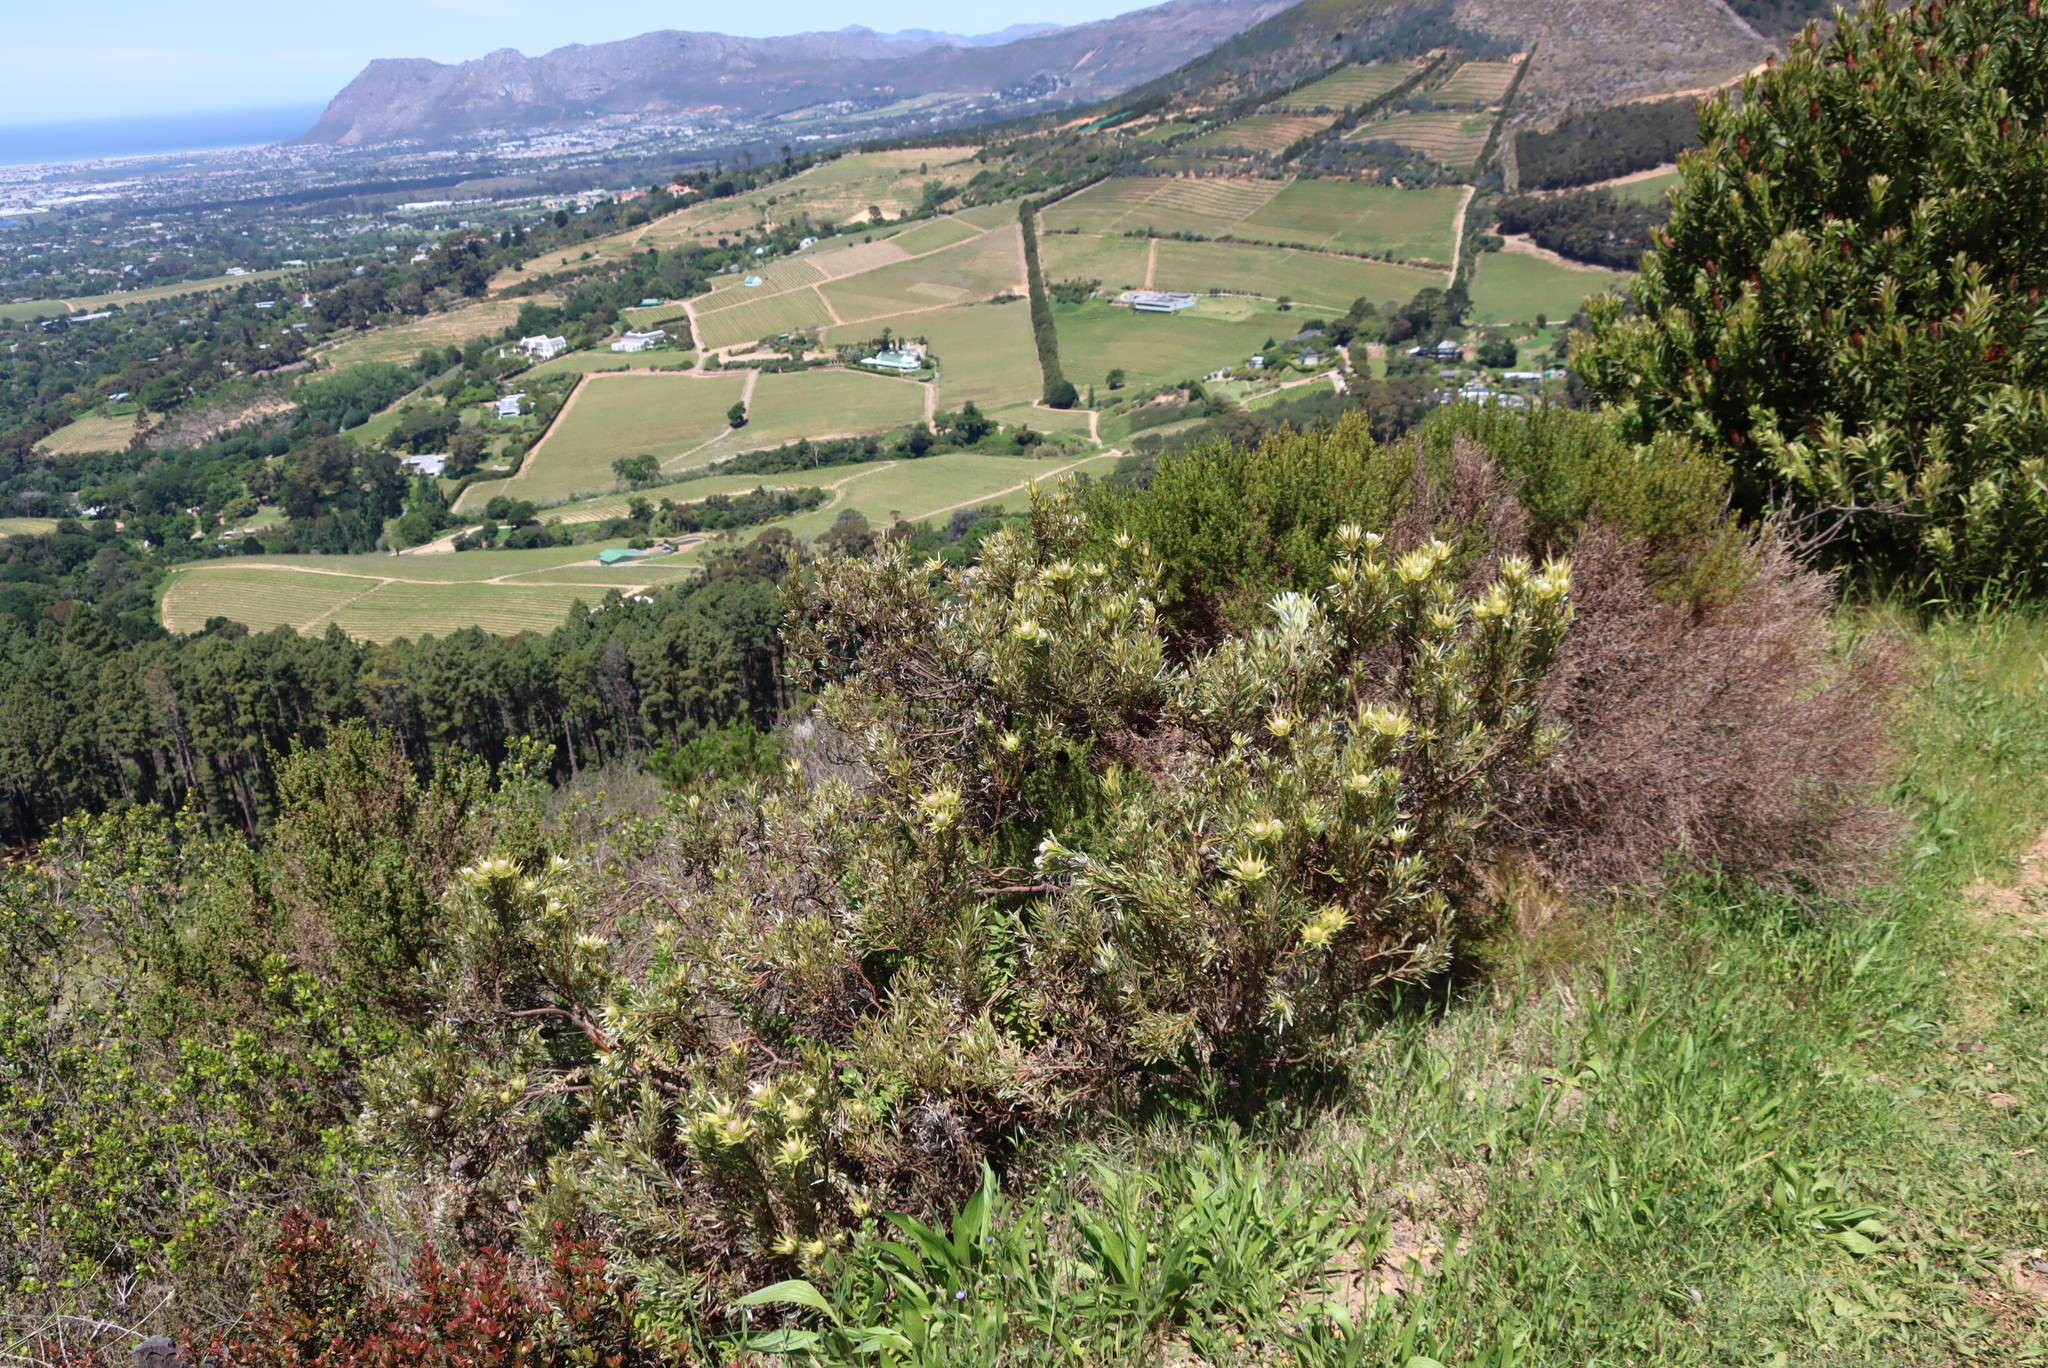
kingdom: Plantae
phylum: Tracheophyta
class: Magnoliopsida
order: Proteales
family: Proteaceae
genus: Leucadendron
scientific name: Leucadendron xanthoconus
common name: Sickle-leaf conebush
